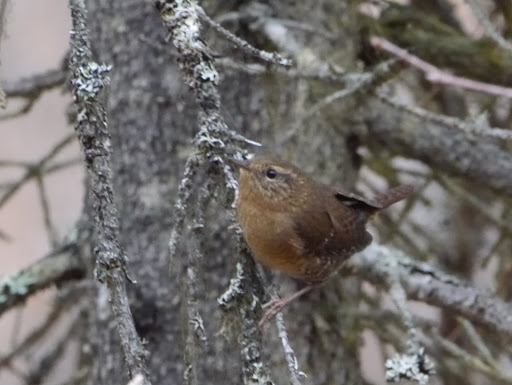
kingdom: Animalia
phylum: Chordata
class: Aves
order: Passeriformes
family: Troglodytidae
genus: Troglodytes
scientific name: Troglodytes pacificus
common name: Pacific wren
